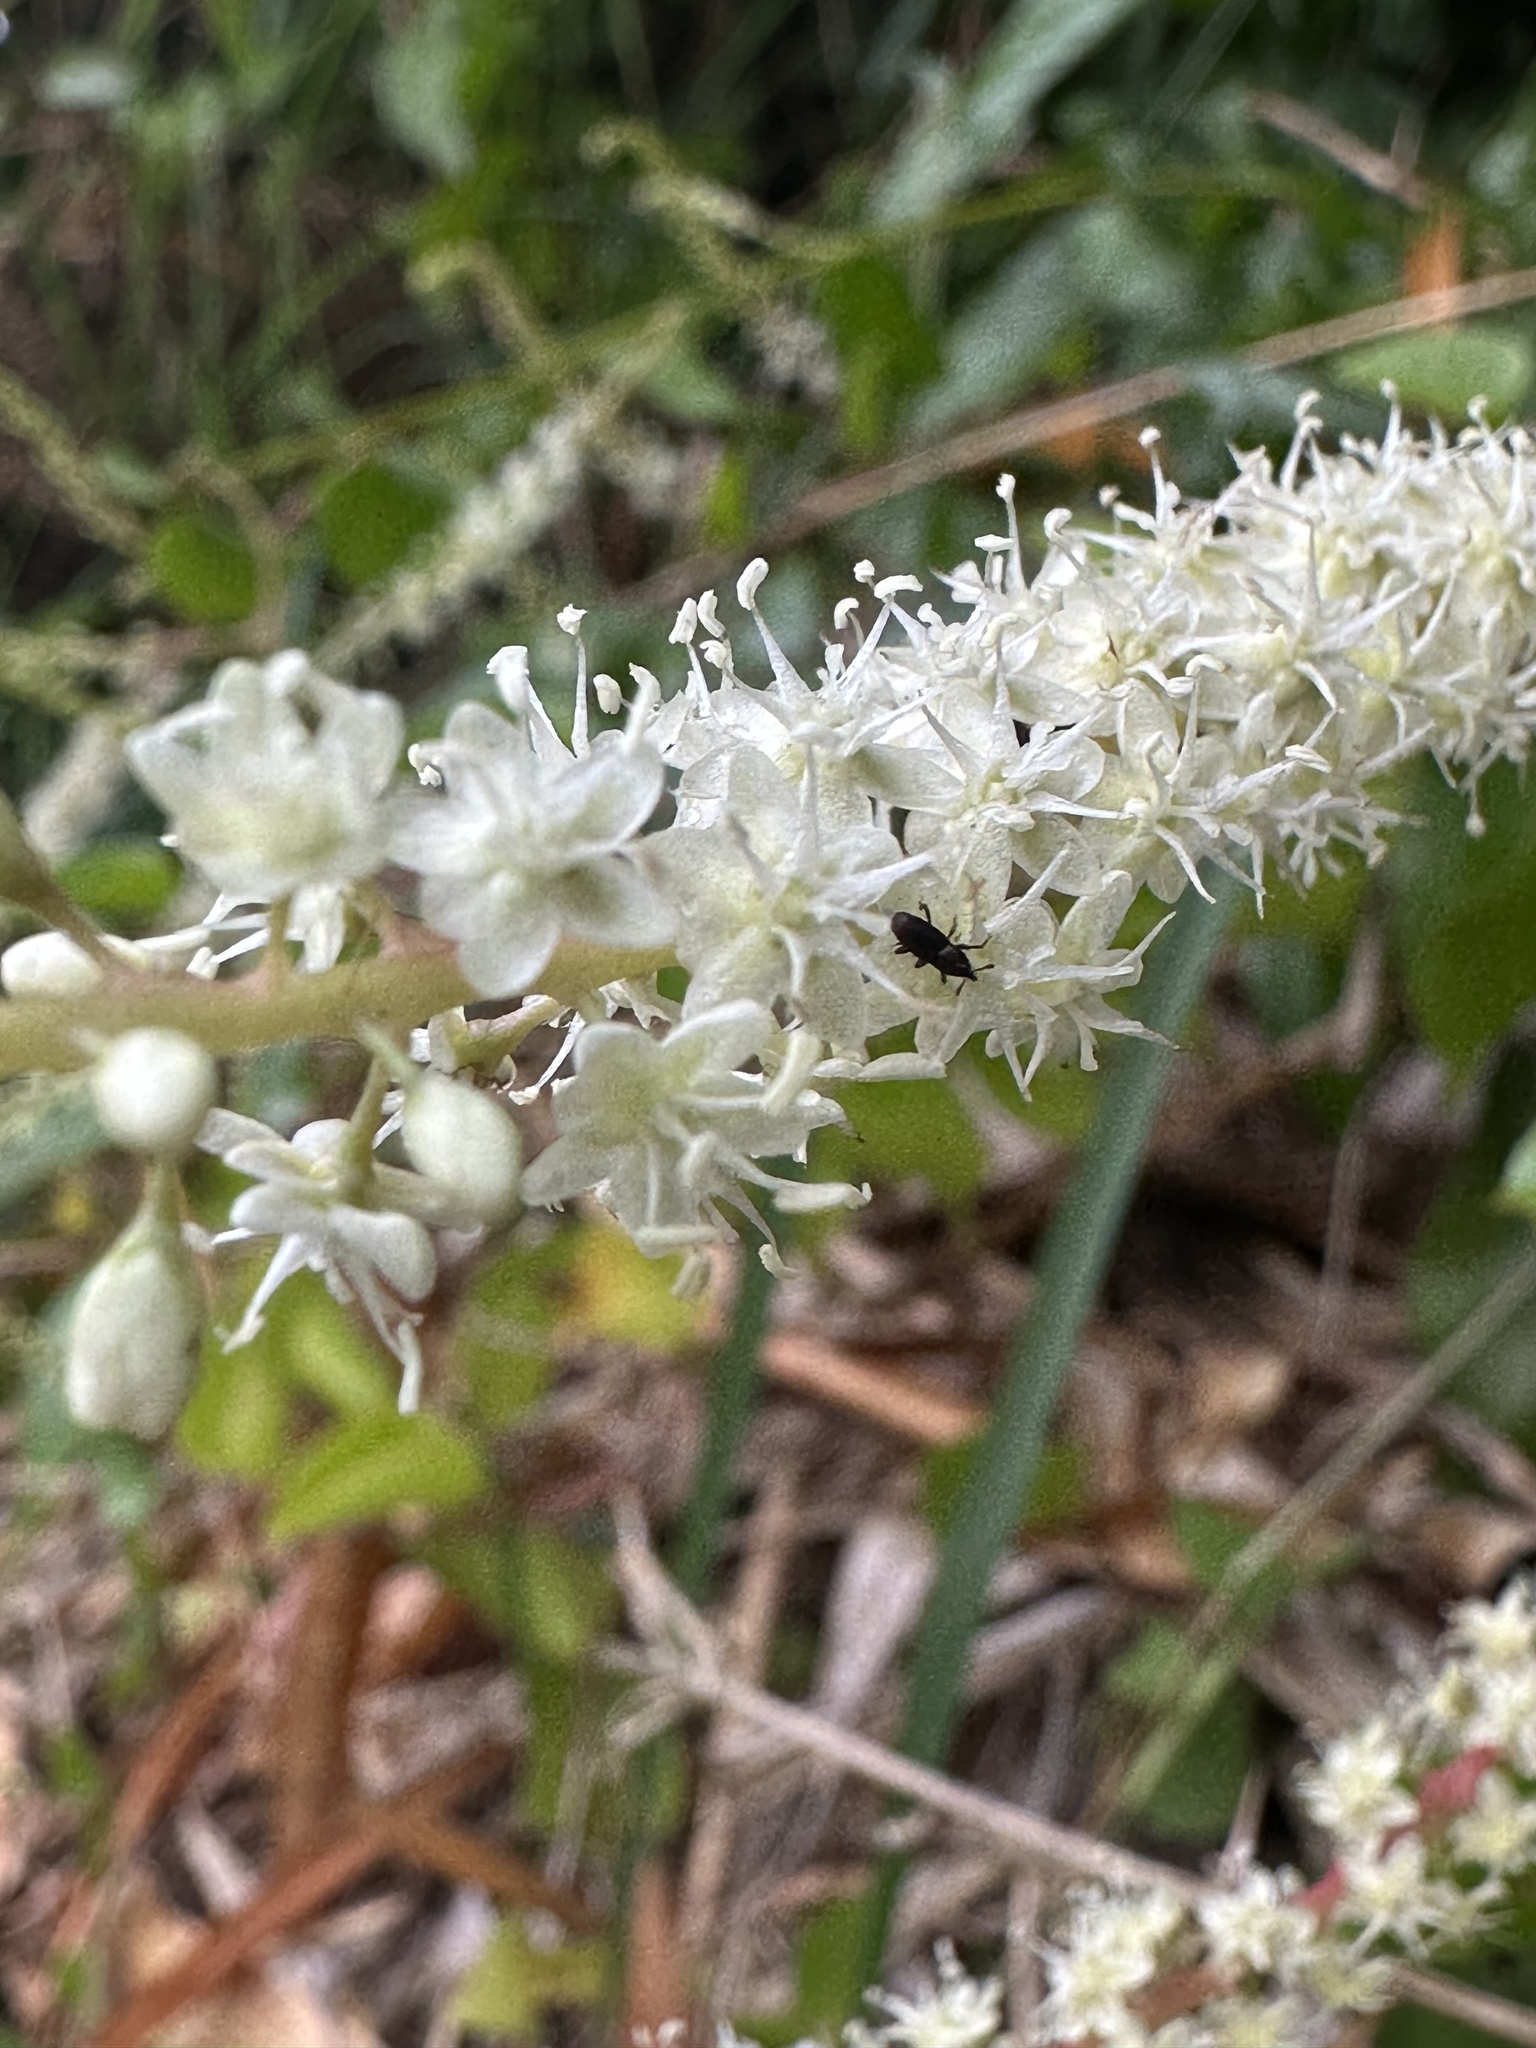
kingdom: Plantae
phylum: Tracheophyta
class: Magnoliopsida
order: Caryophyllales
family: Basellaceae
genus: Anredera
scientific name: Anredera cordifolia
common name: Heartleaf madeiravine
